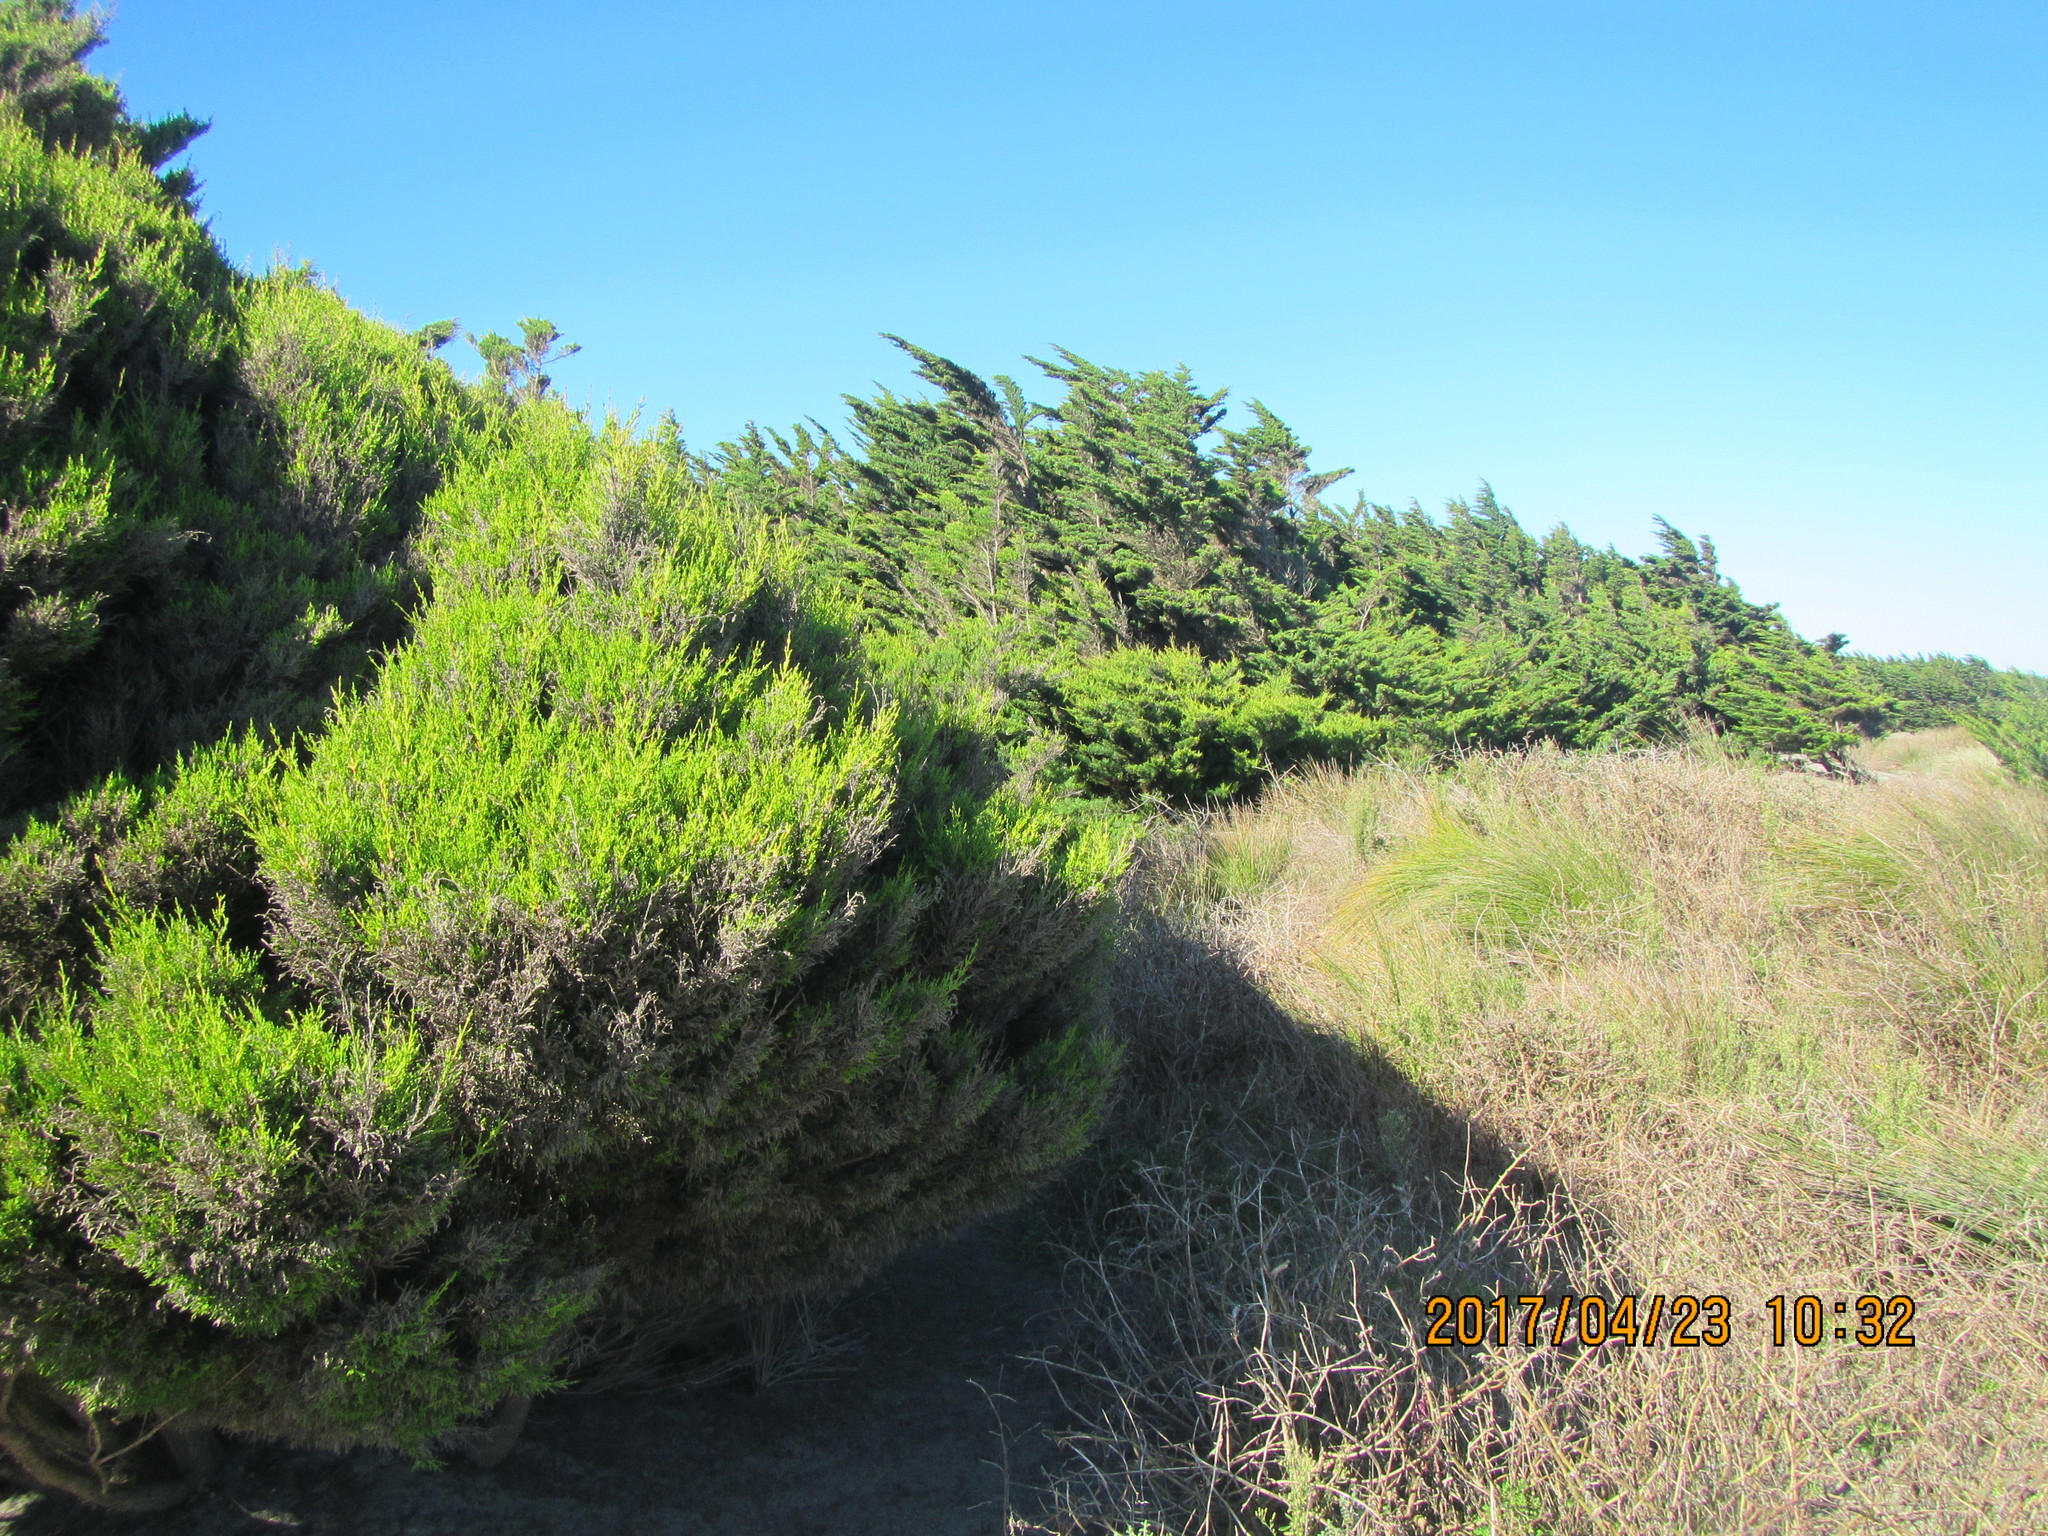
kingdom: Plantae
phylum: Tracheophyta
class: Pinopsida
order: Pinales
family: Cupressaceae
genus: Cupressus
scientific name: Cupressus macrocarpa
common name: Monterey cypress
